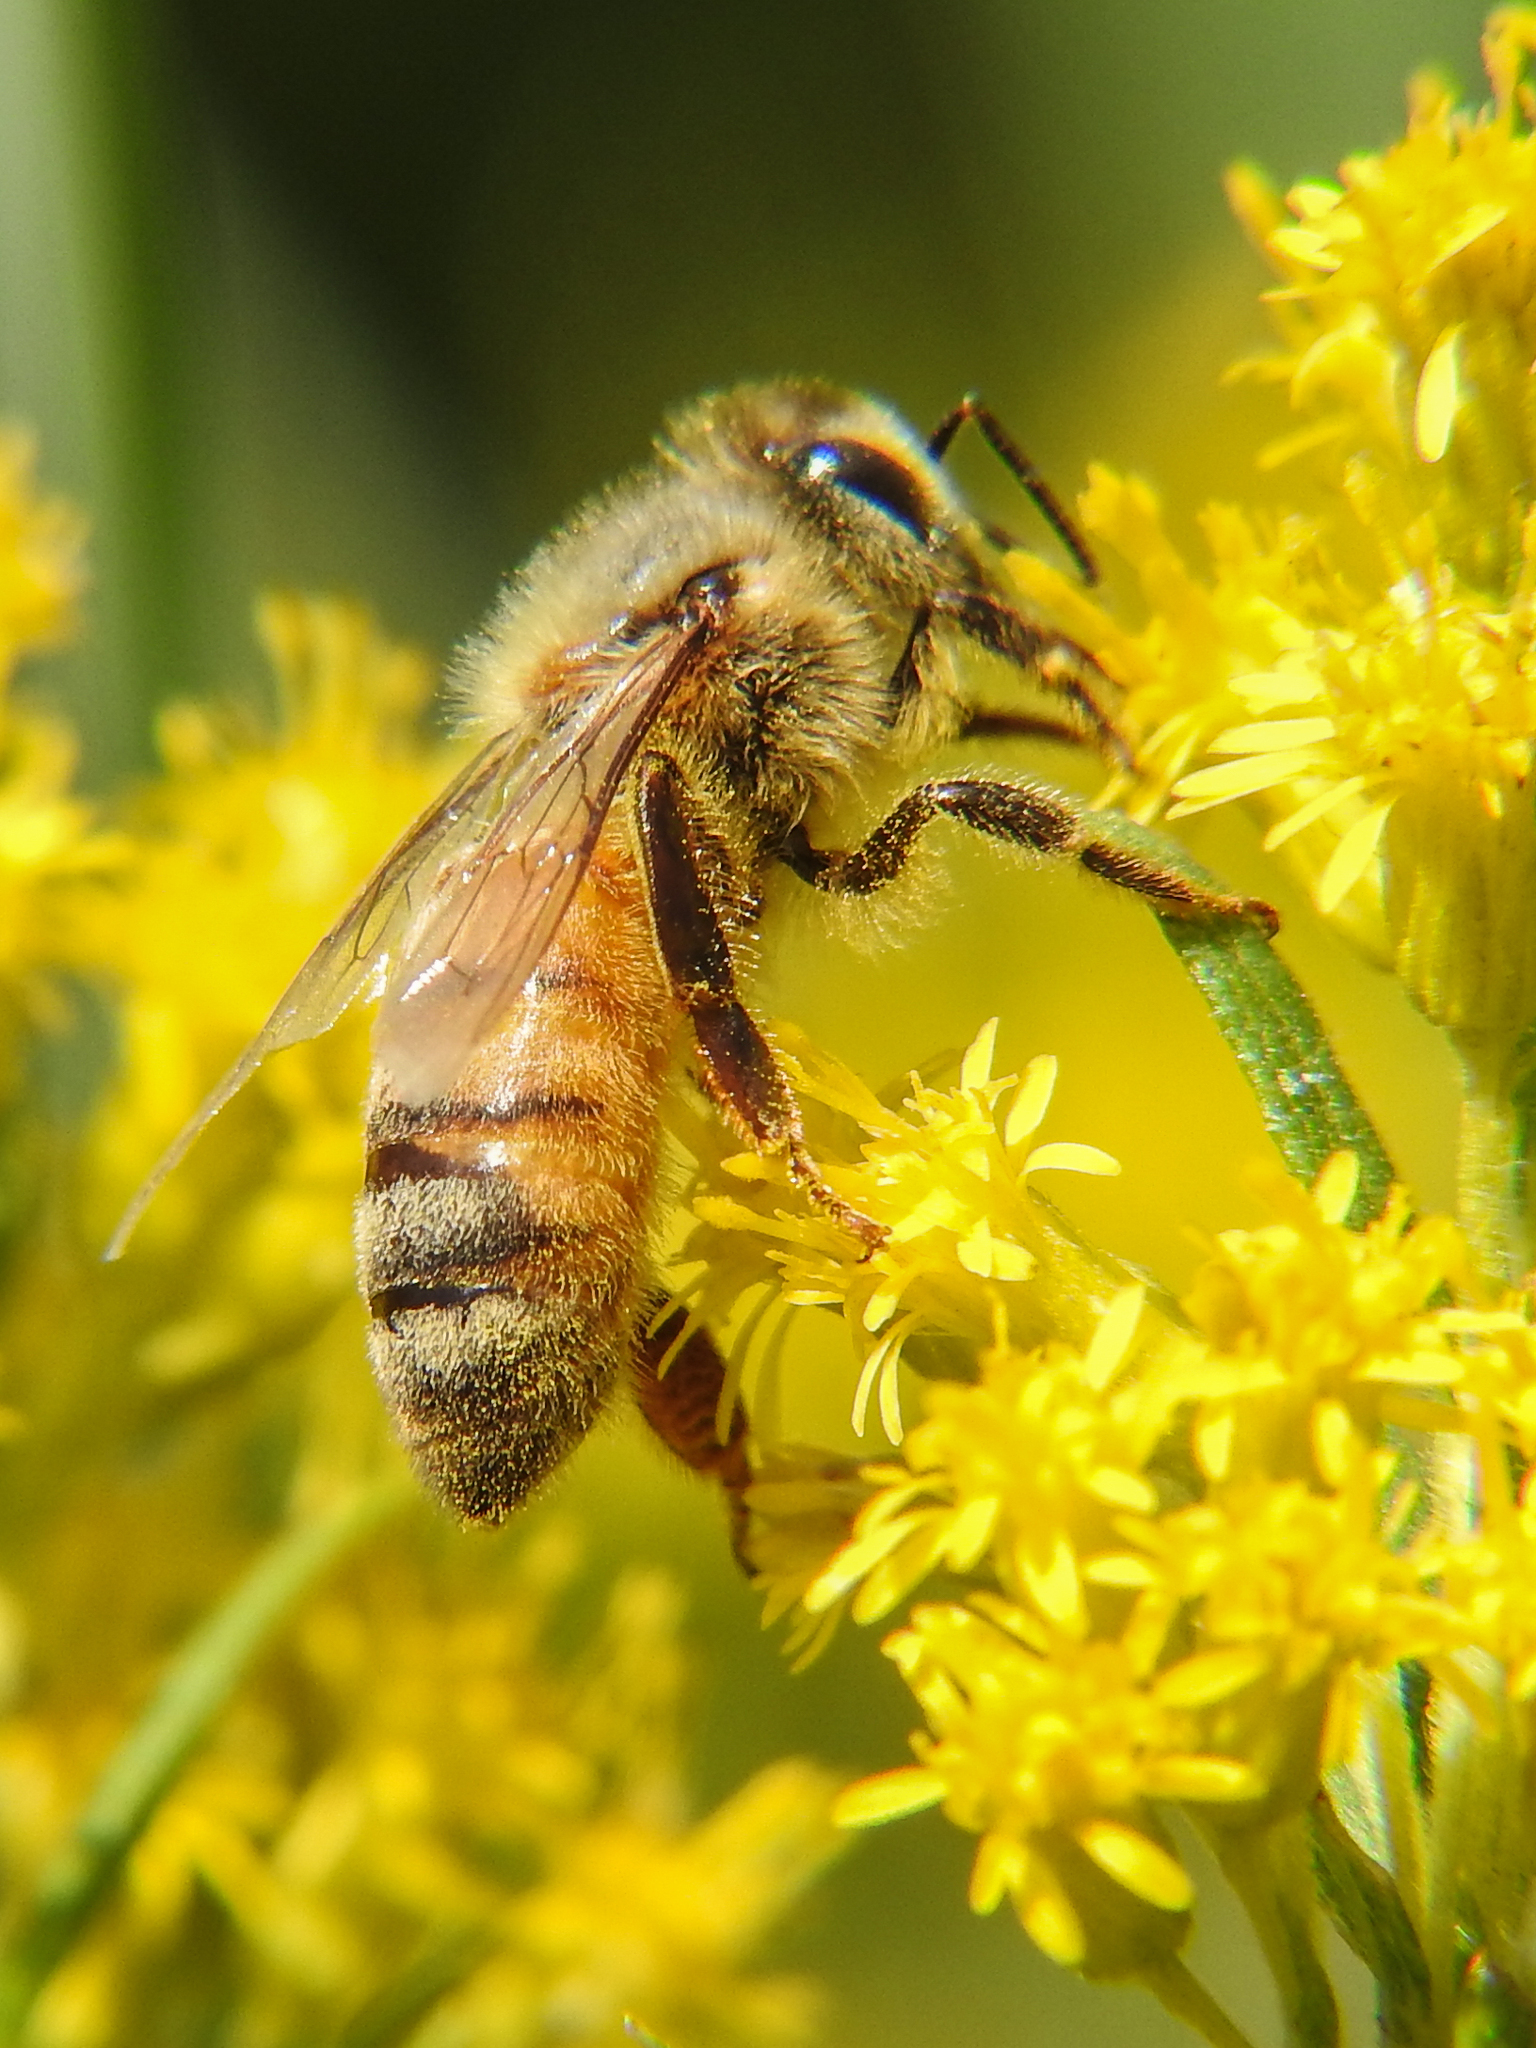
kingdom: Animalia
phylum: Arthropoda
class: Insecta
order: Hymenoptera
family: Apidae
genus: Apis
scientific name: Apis mellifera
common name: Honey bee
